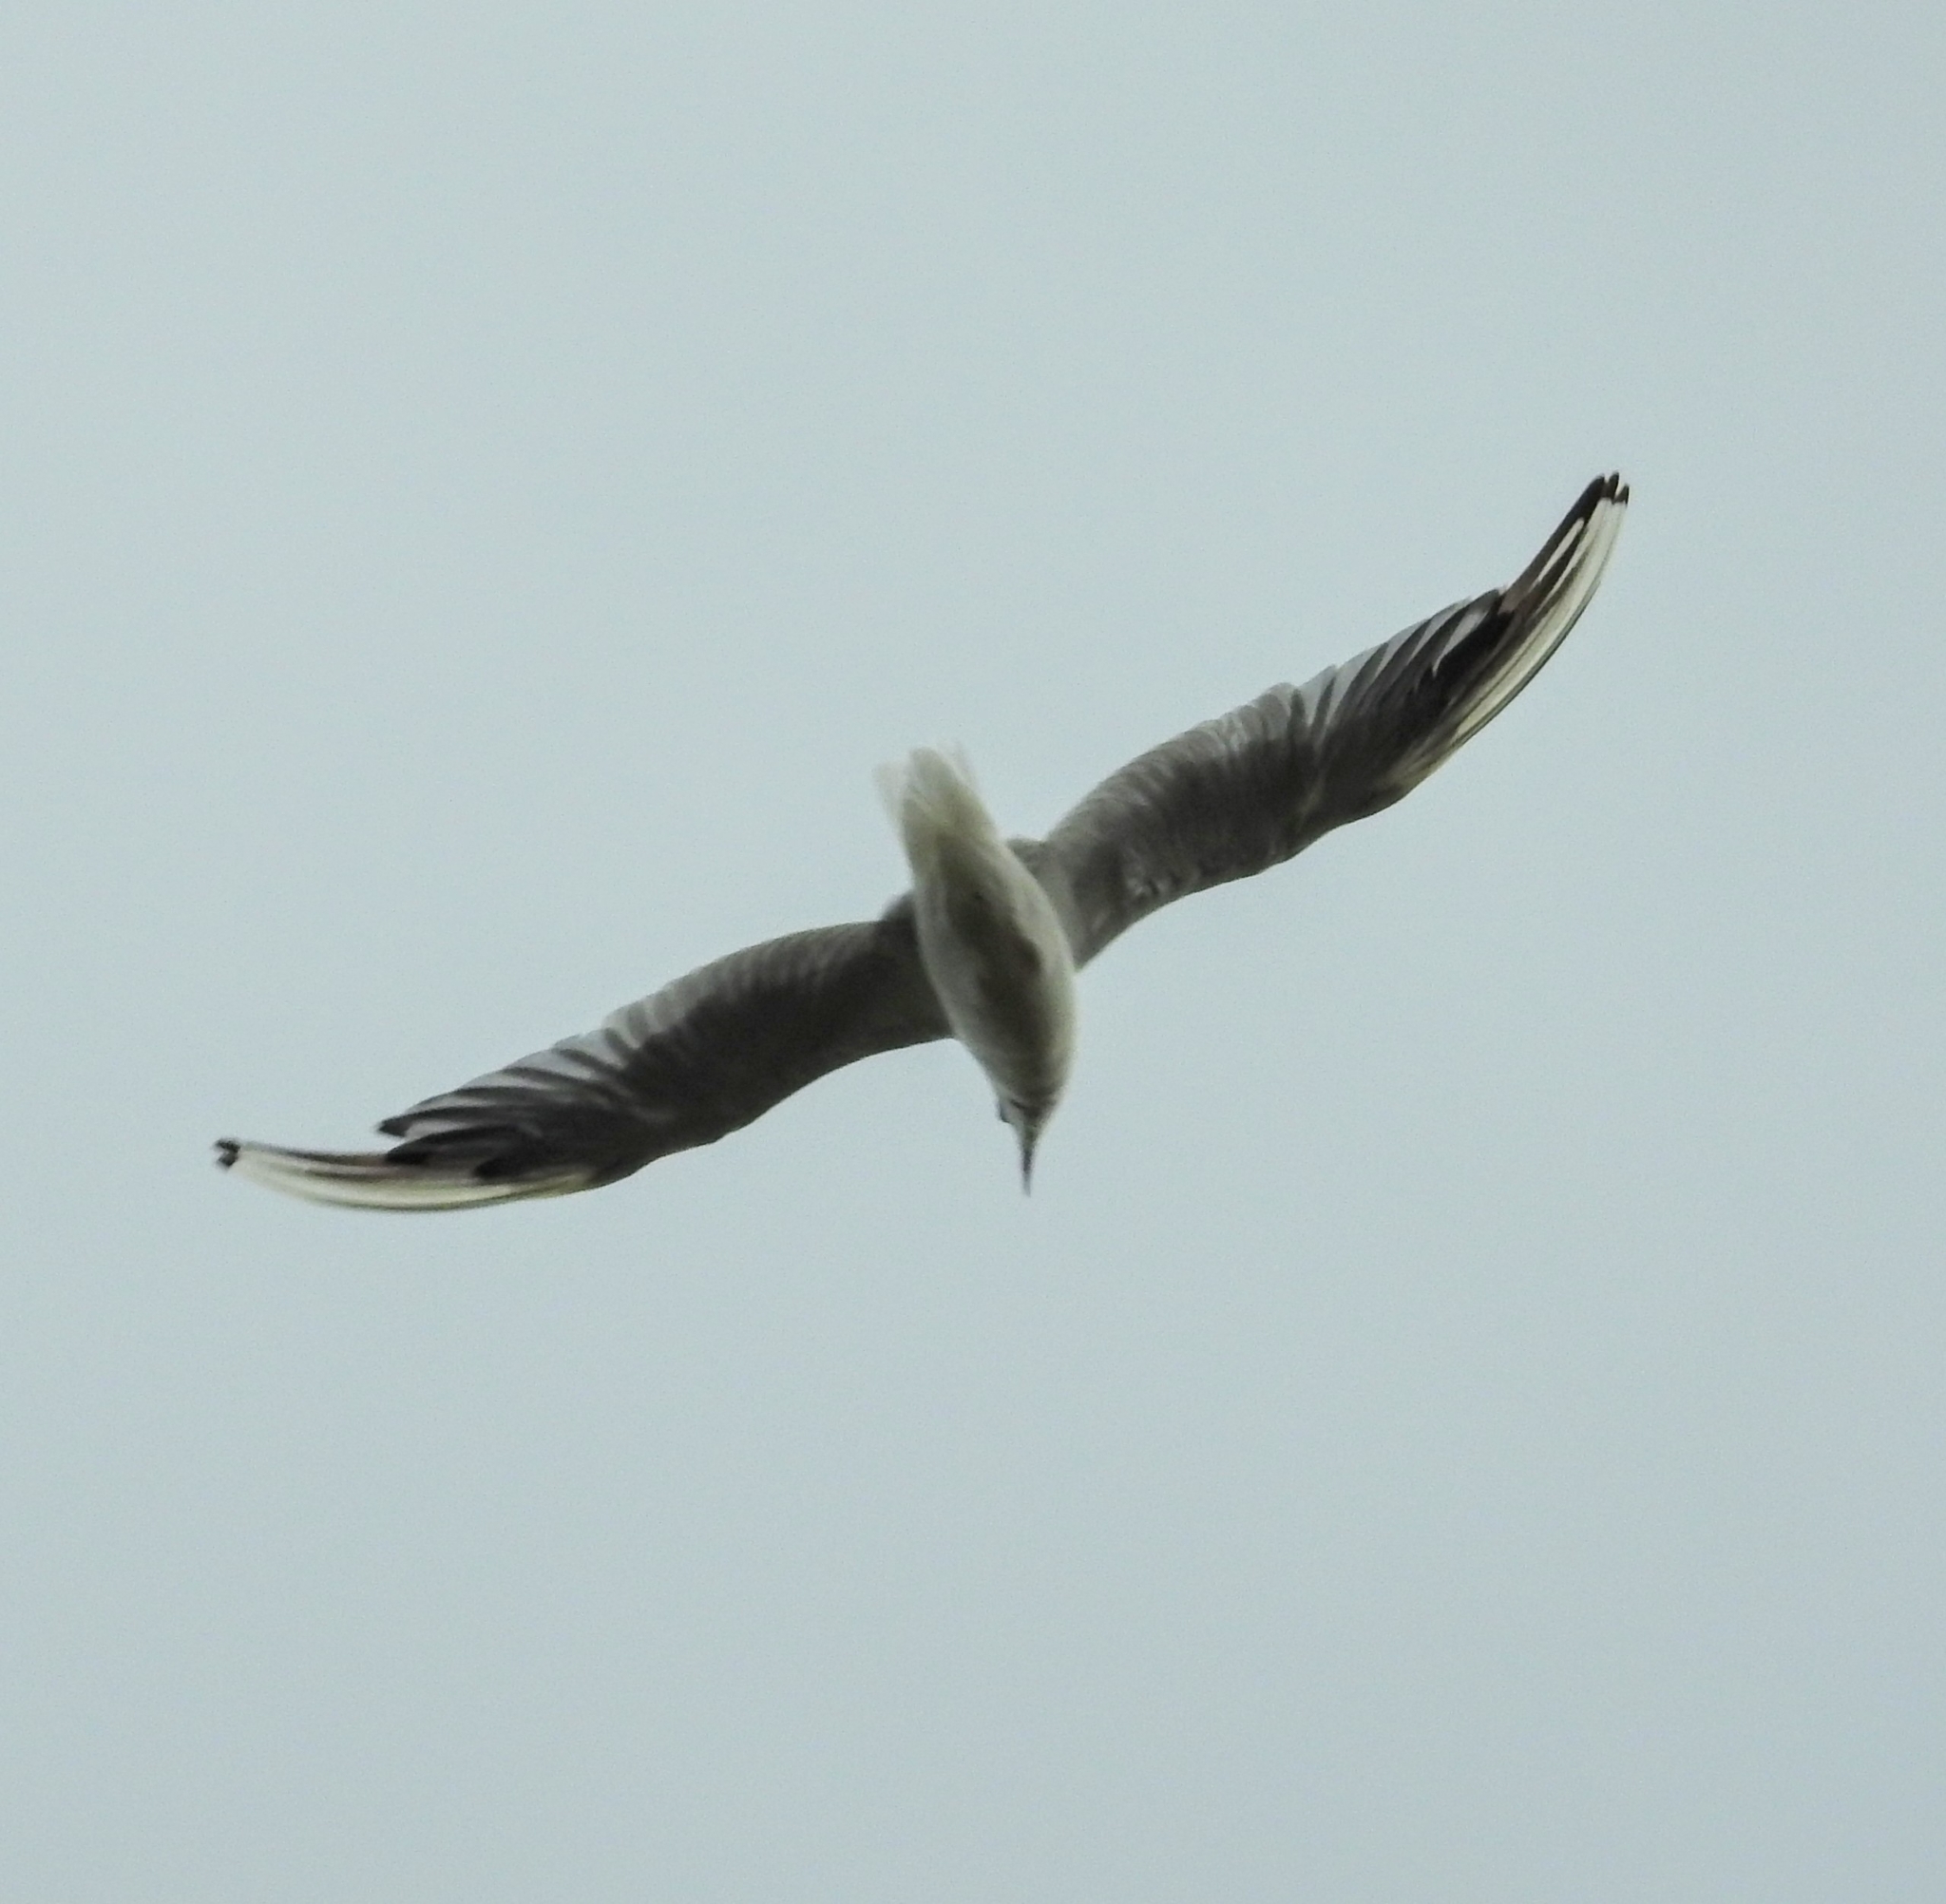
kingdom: Animalia
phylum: Chordata
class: Aves
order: Charadriiformes
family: Laridae
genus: Chroicocephalus
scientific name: Chroicocephalus ridibundus
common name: Black-headed gull
